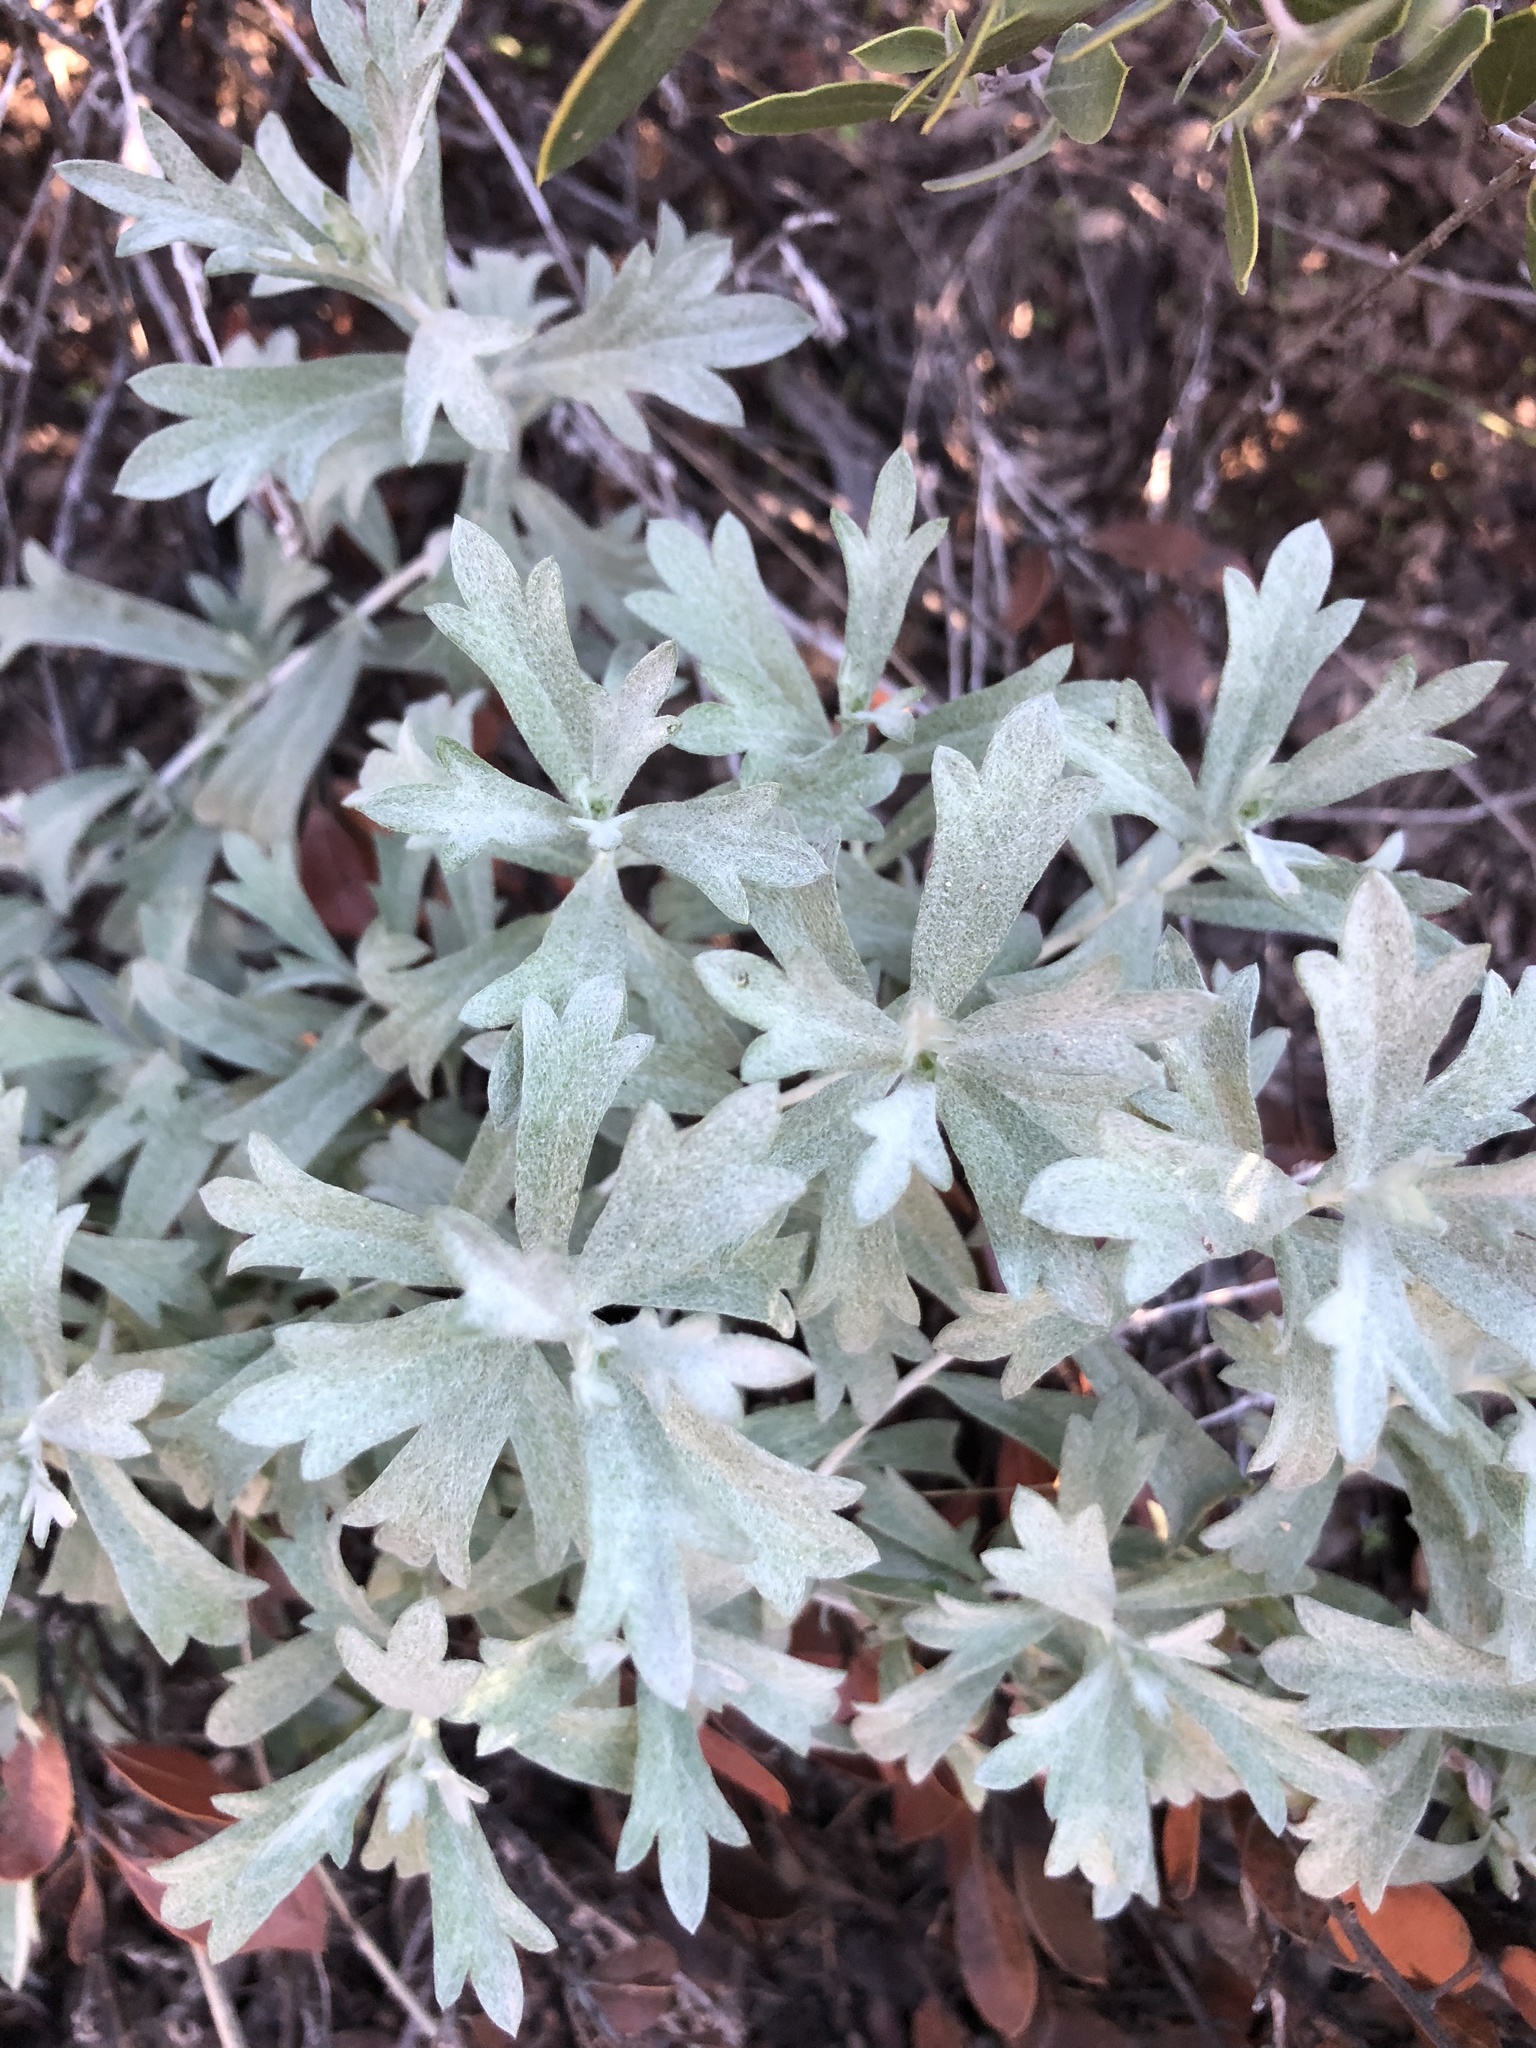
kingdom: Plantae
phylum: Tracheophyta
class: Magnoliopsida
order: Asterales
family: Asteraceae
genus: Artemisia
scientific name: Artemisia ludoviciana
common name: Western mugwort
